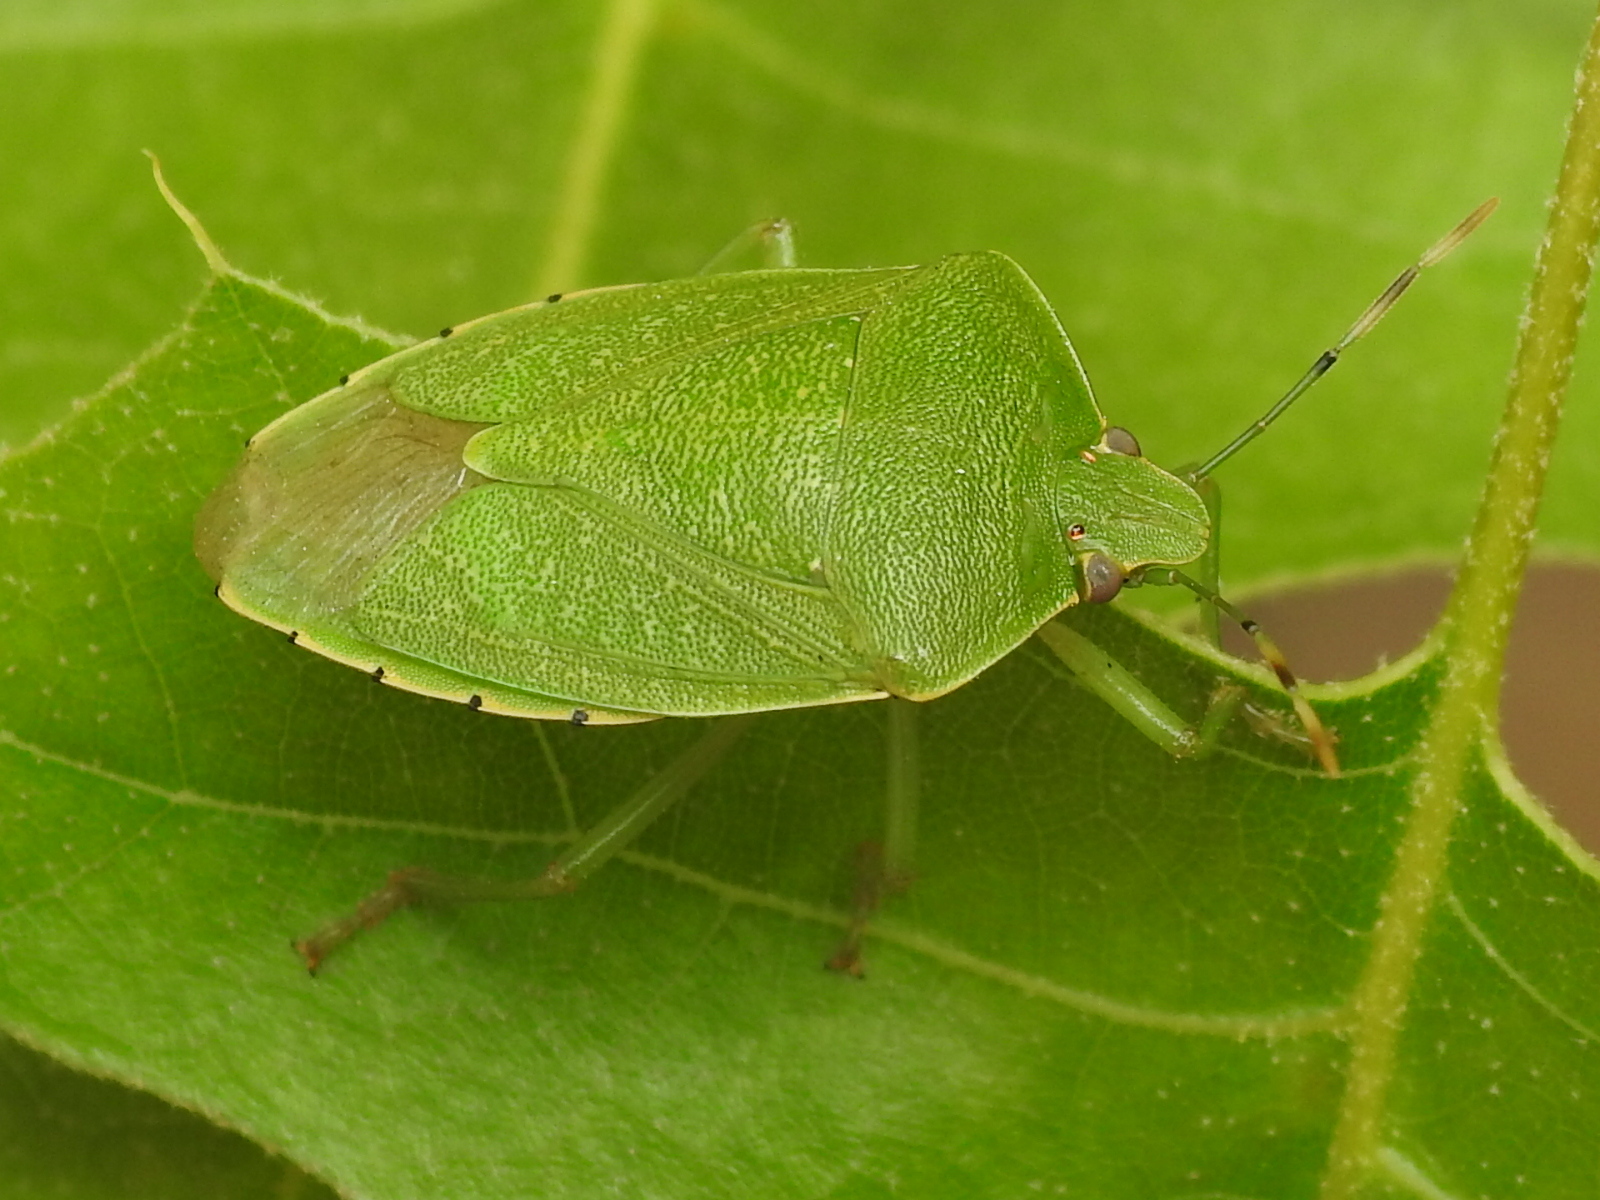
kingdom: Animalia
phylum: Arthropoda
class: Insecta
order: Hemiptera
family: Pentatomidae
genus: Chinavia
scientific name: Chinavia hilaris
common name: Green stink bug
